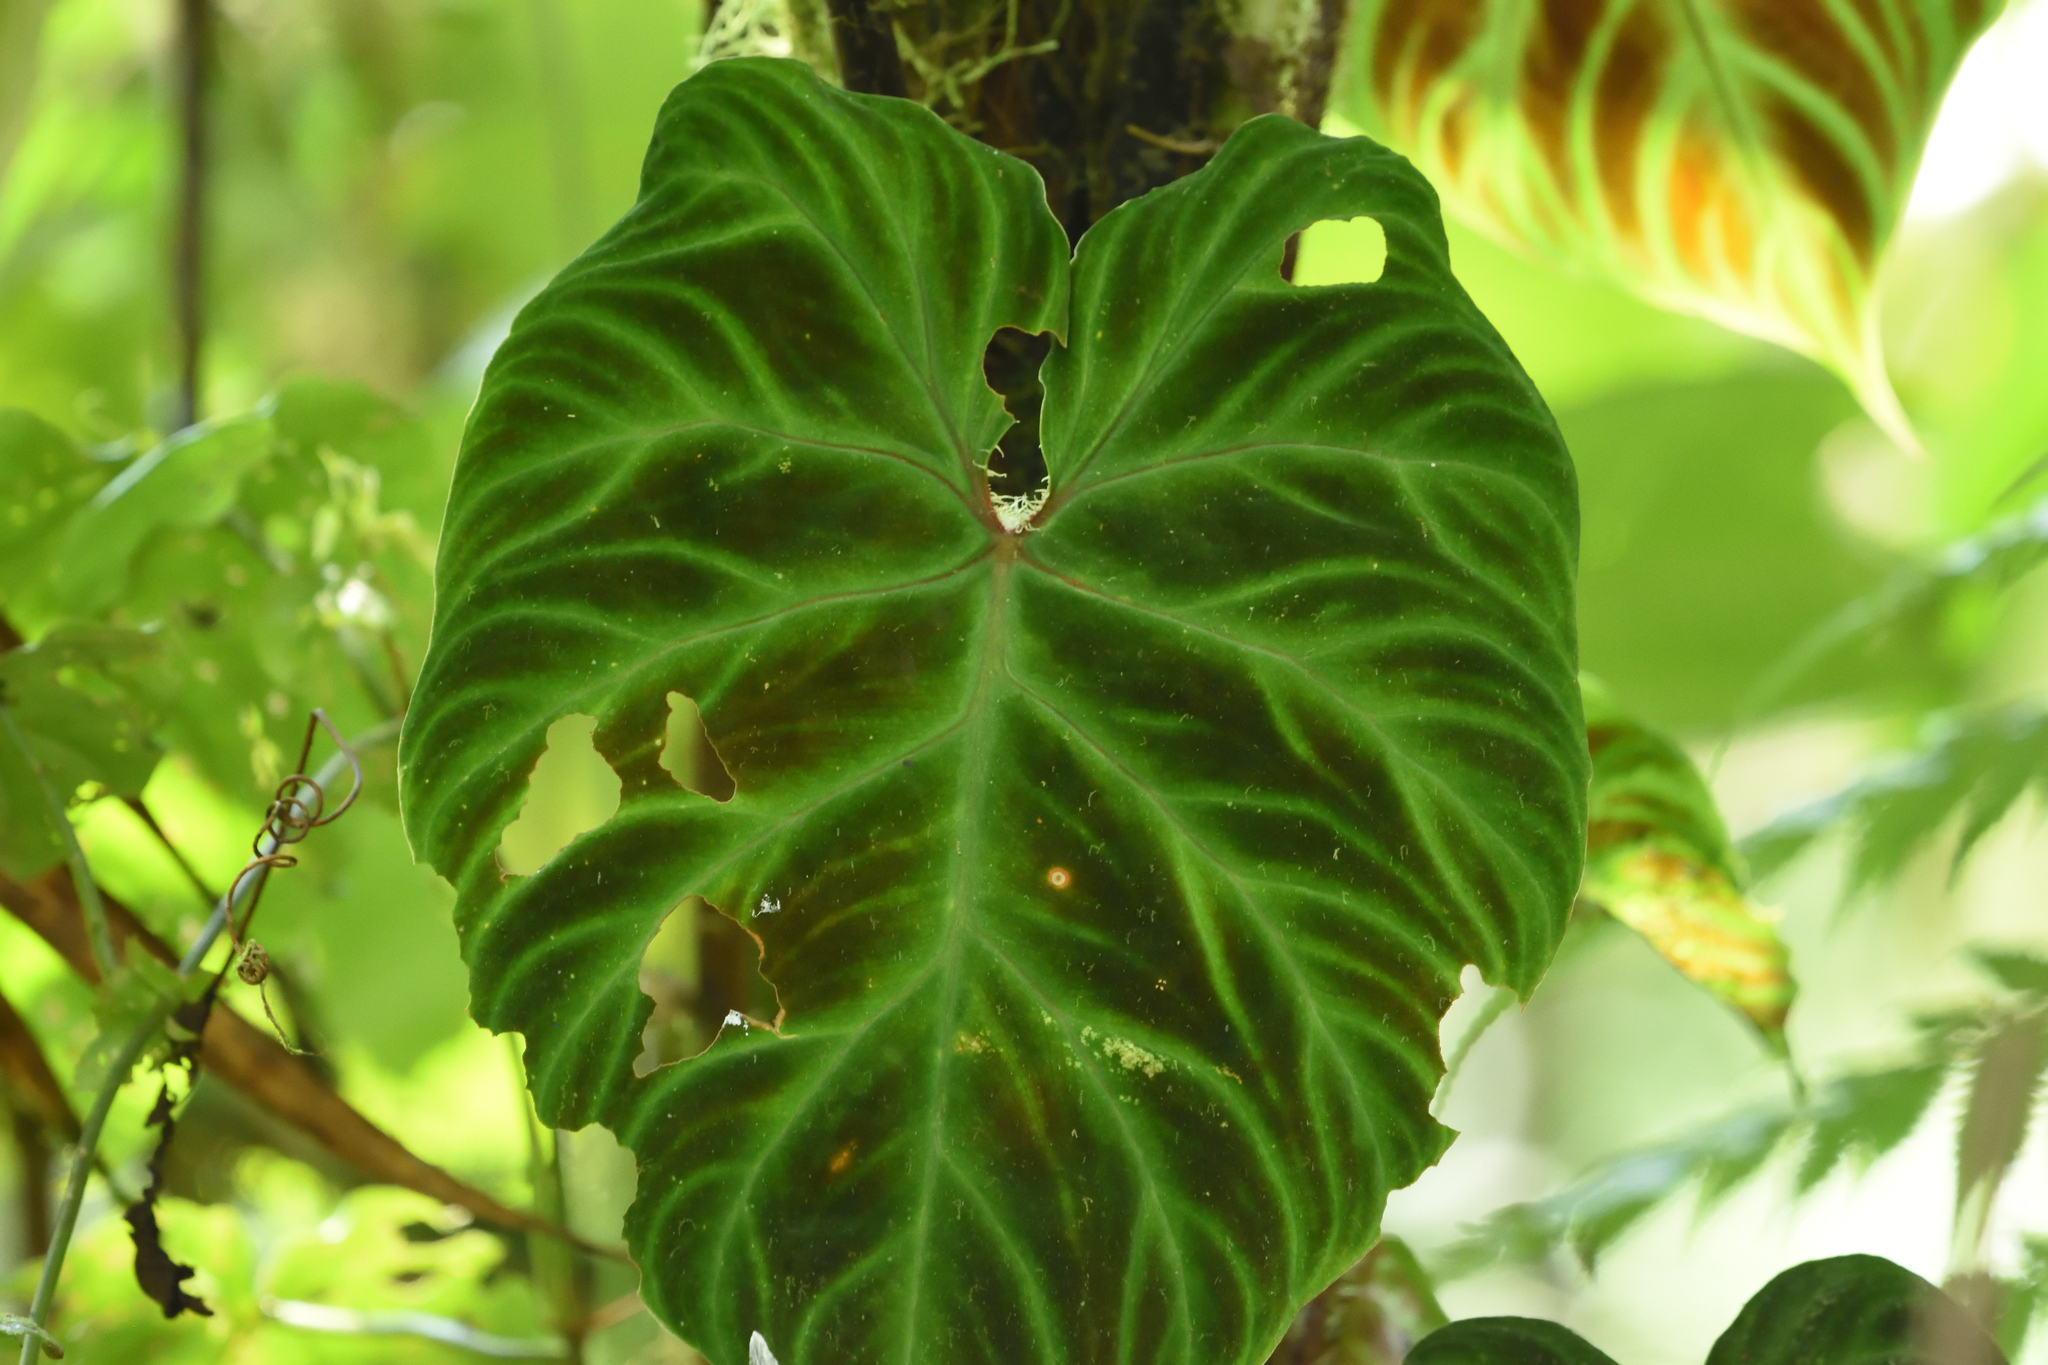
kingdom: Plantae
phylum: Tracheophyta
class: Liliopsida
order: Alismatales
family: Araceae
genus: Philodendron
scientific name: Philodendron verrucosum
